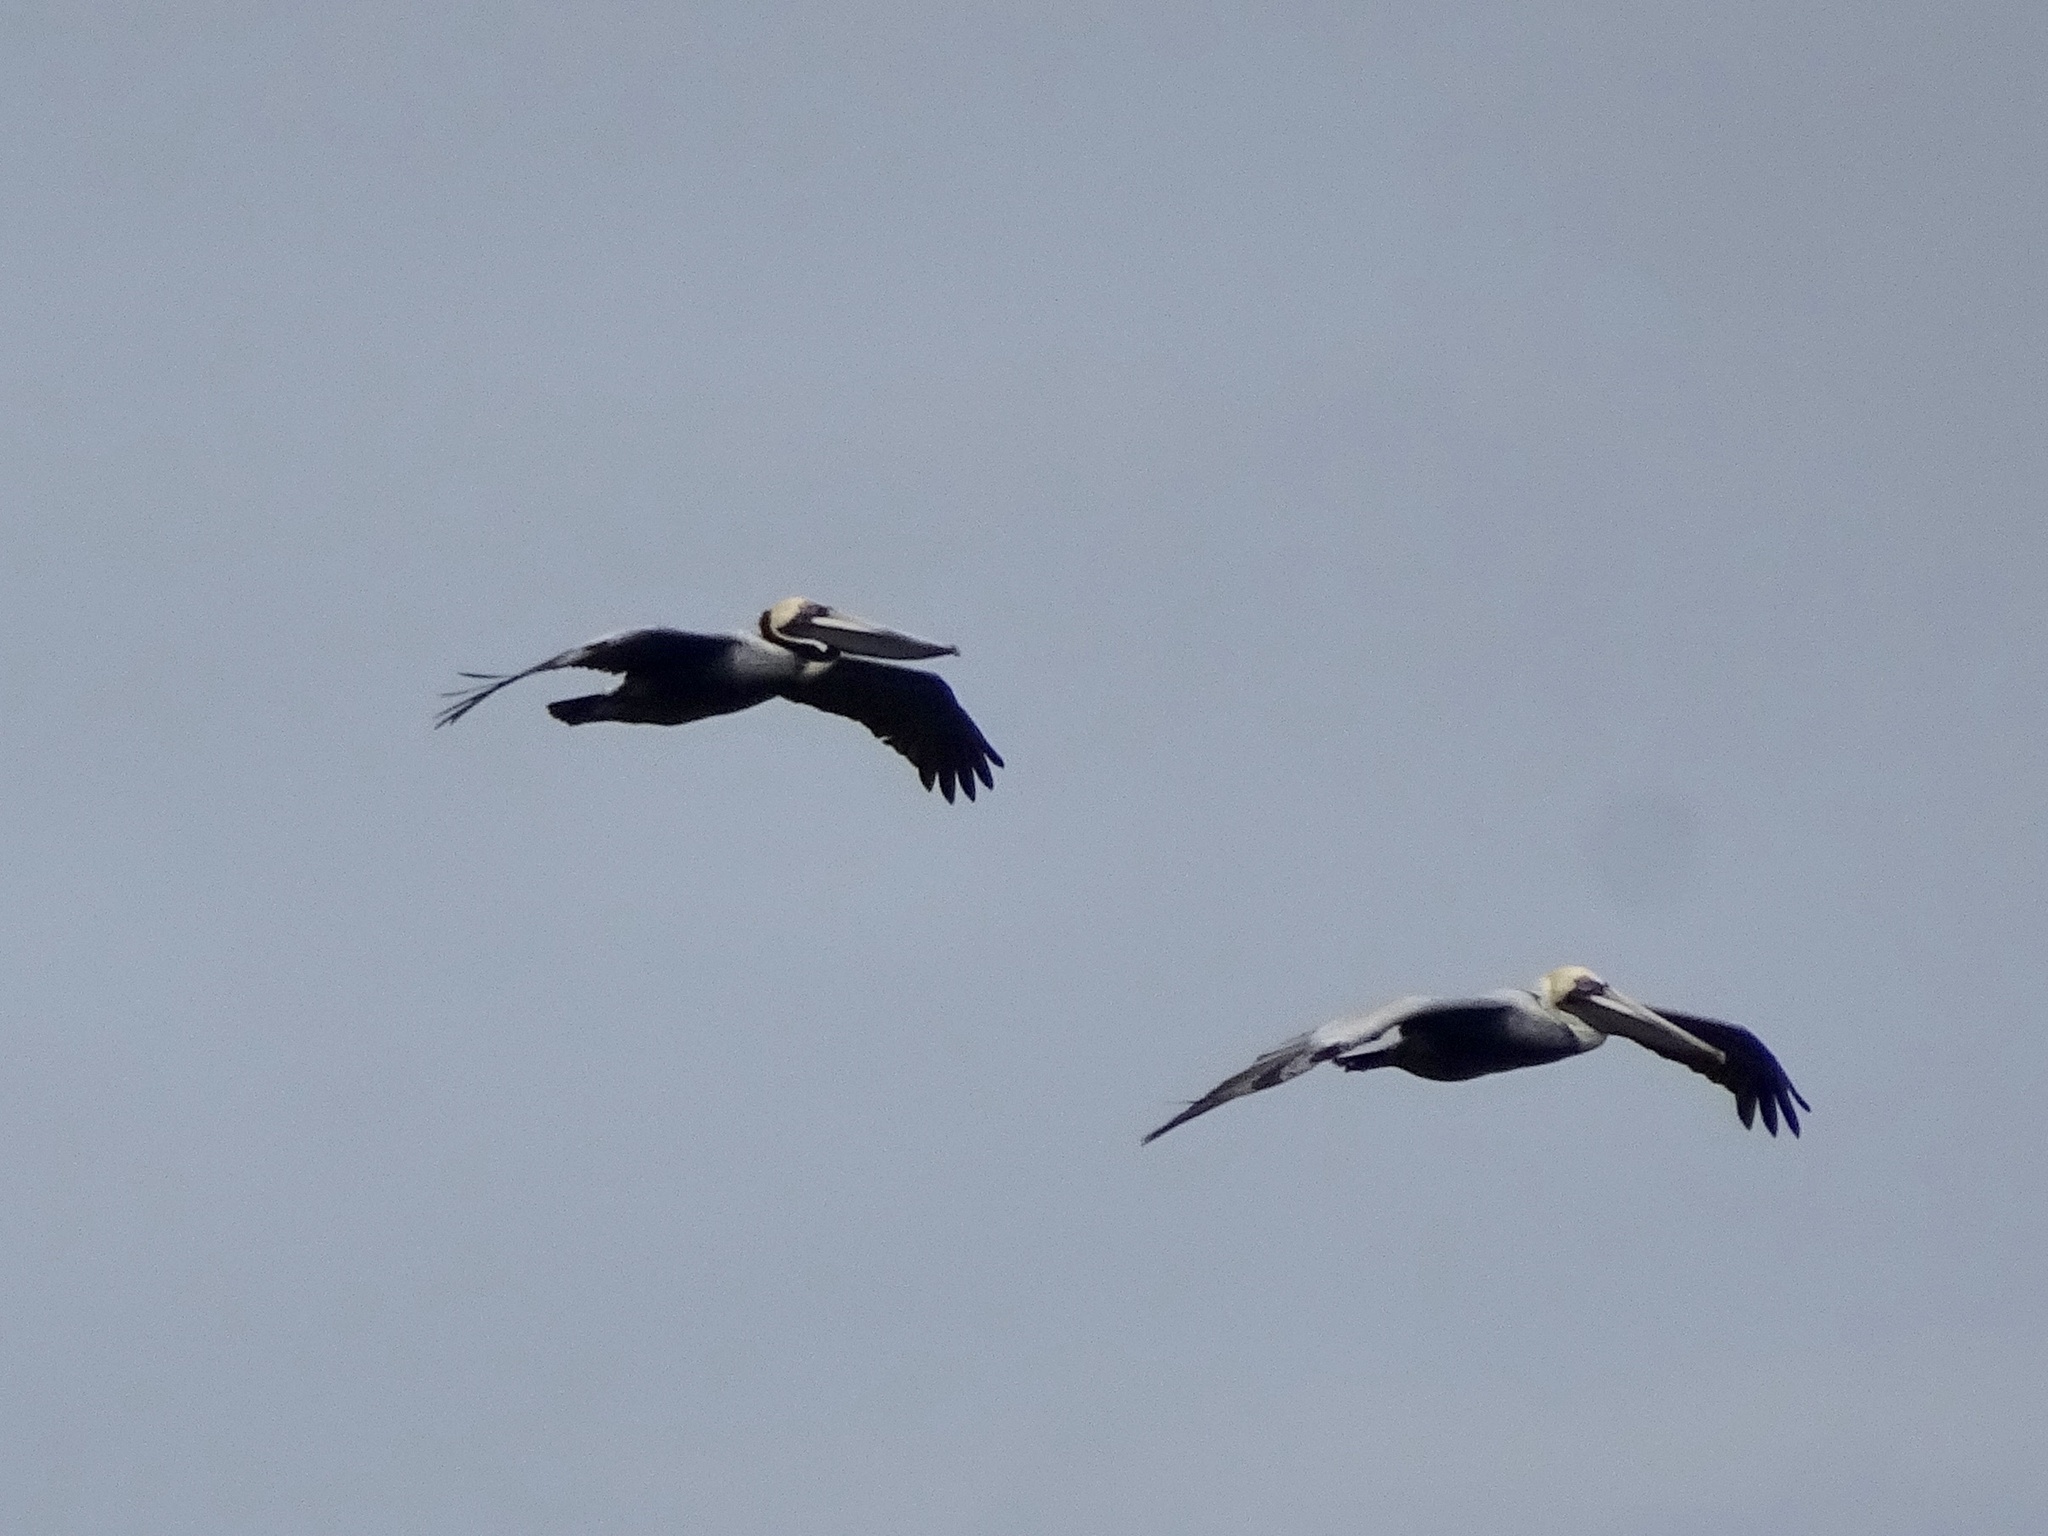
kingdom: Animalia
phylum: Chordata
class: Aves
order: Pelecaniformes
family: Pelecanidae
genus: Pelecanus
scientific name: Pelecanus occidentalis
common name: Brown pelican
